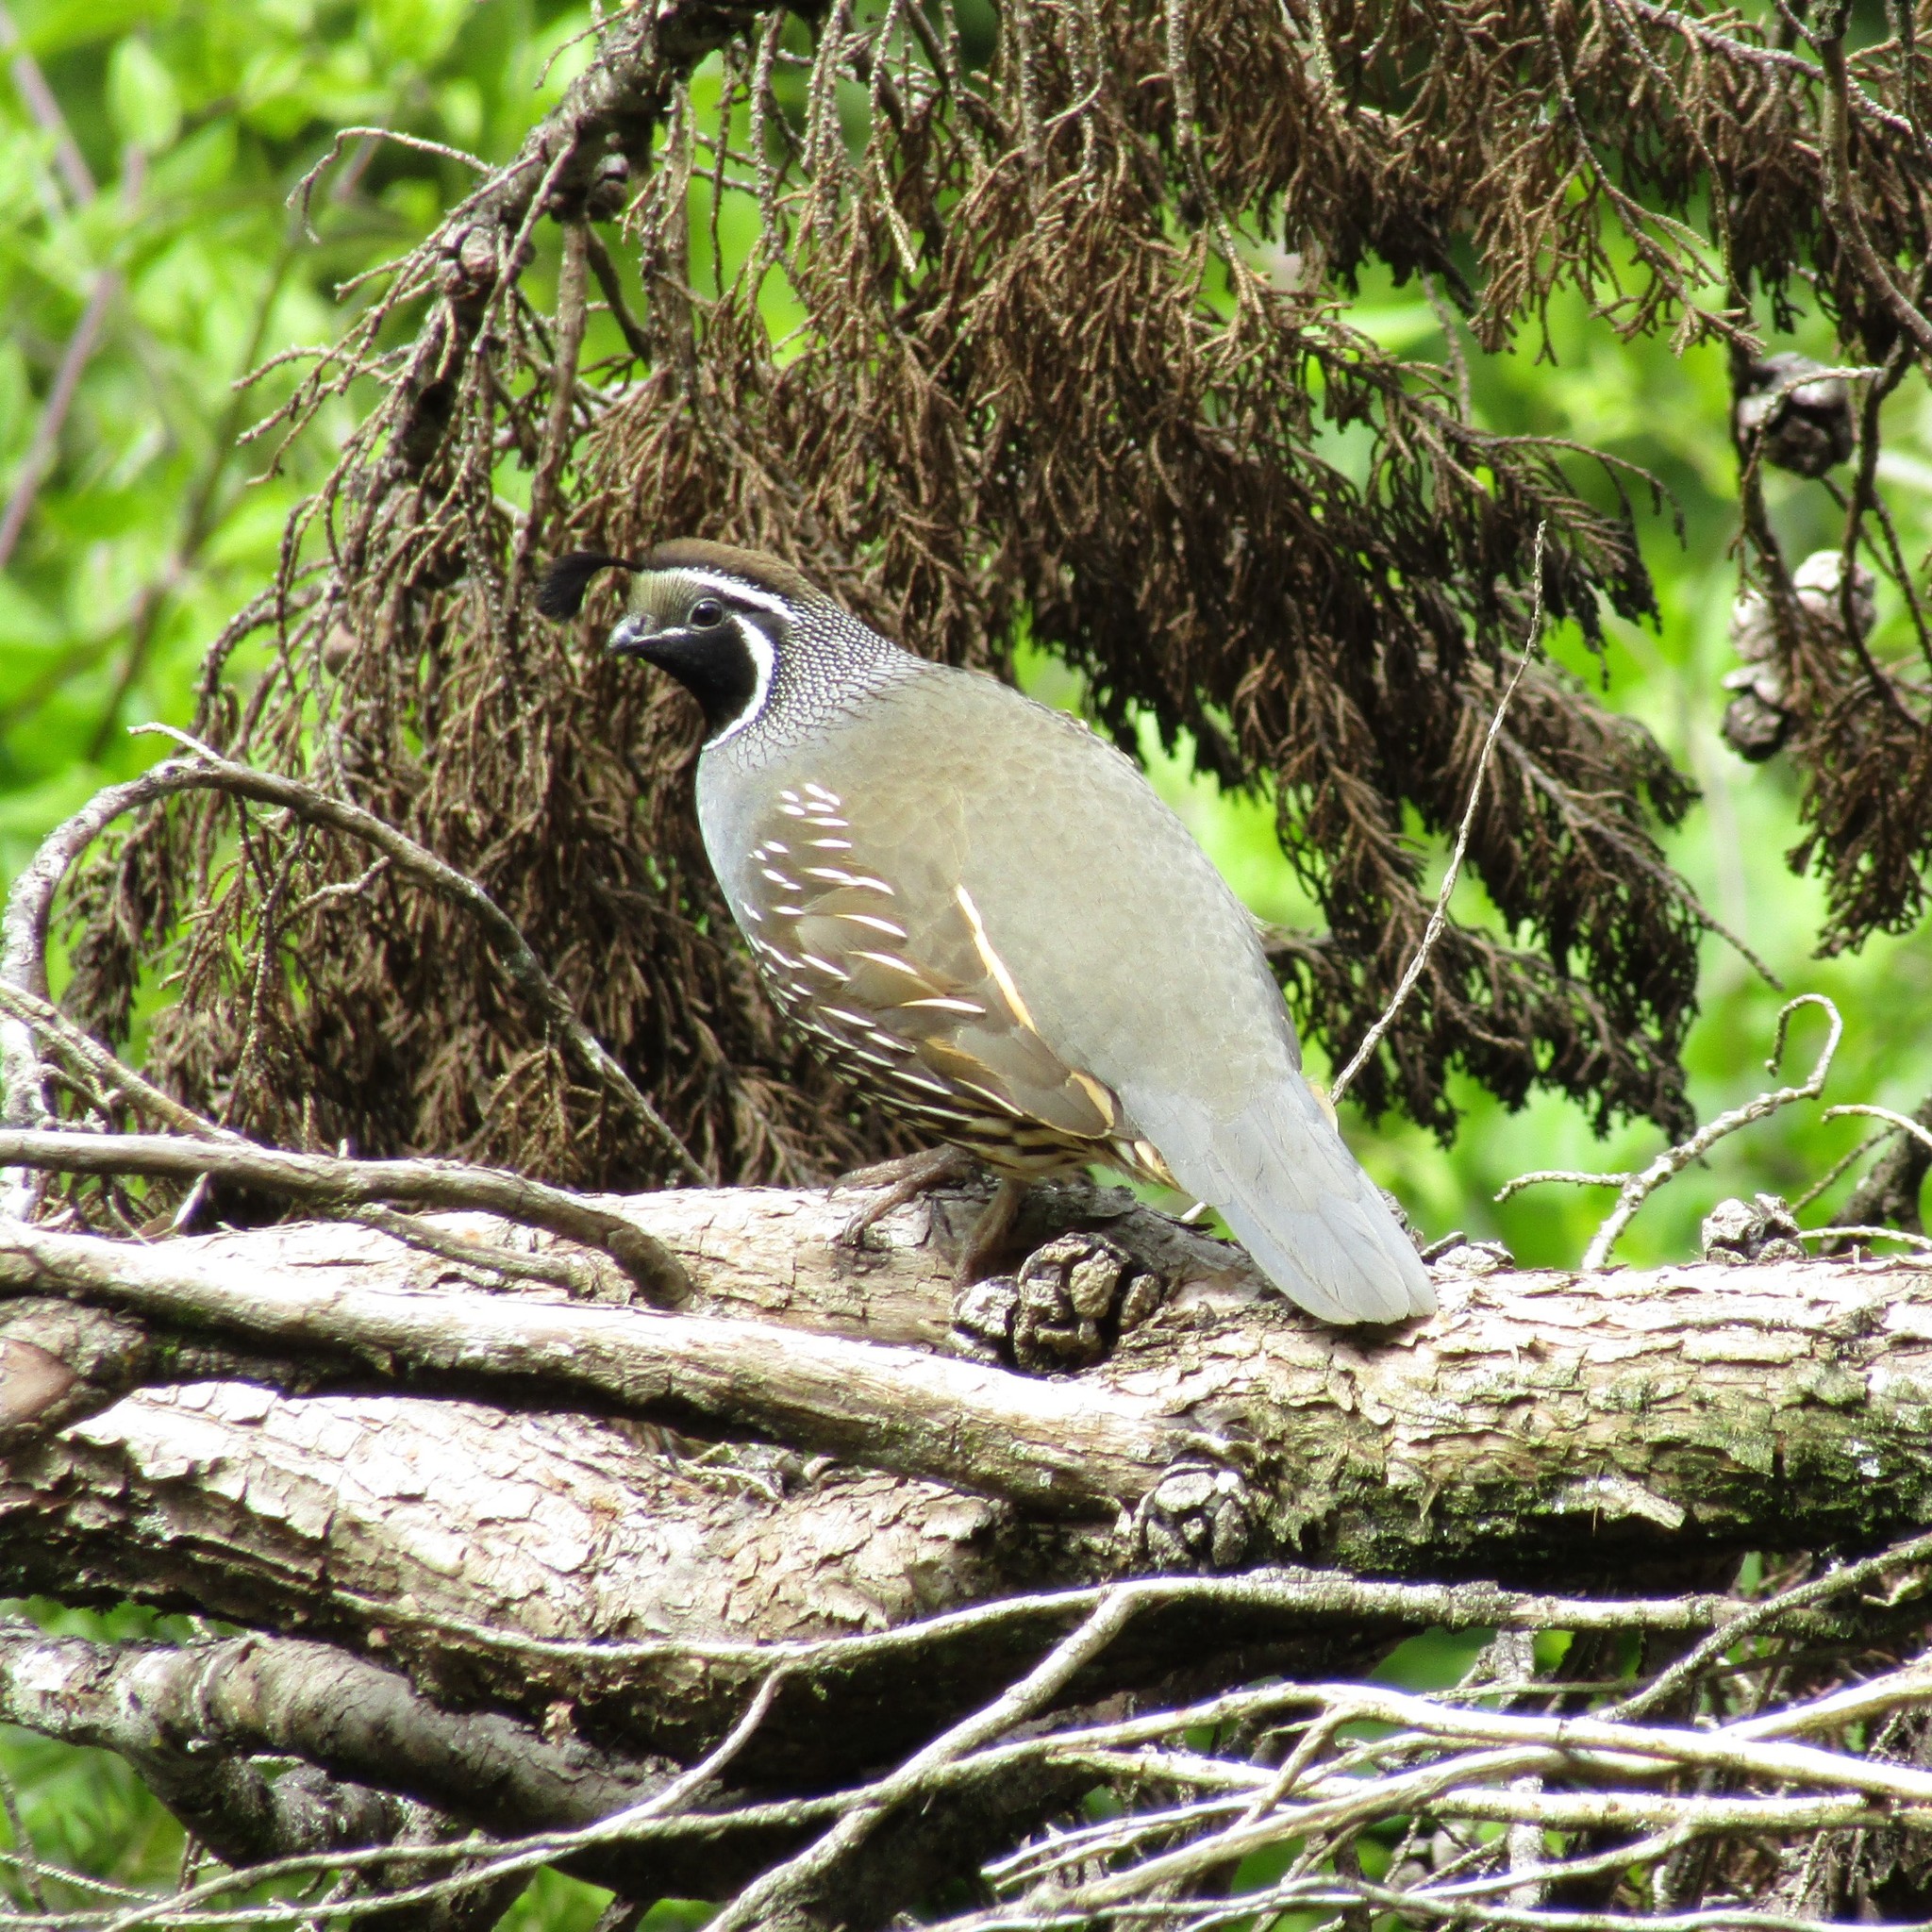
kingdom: Animalia
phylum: Chordata
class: Aves
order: Galliformes
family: Odontophoridae
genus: Callipepla
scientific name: Callipepla californica
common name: California quail
